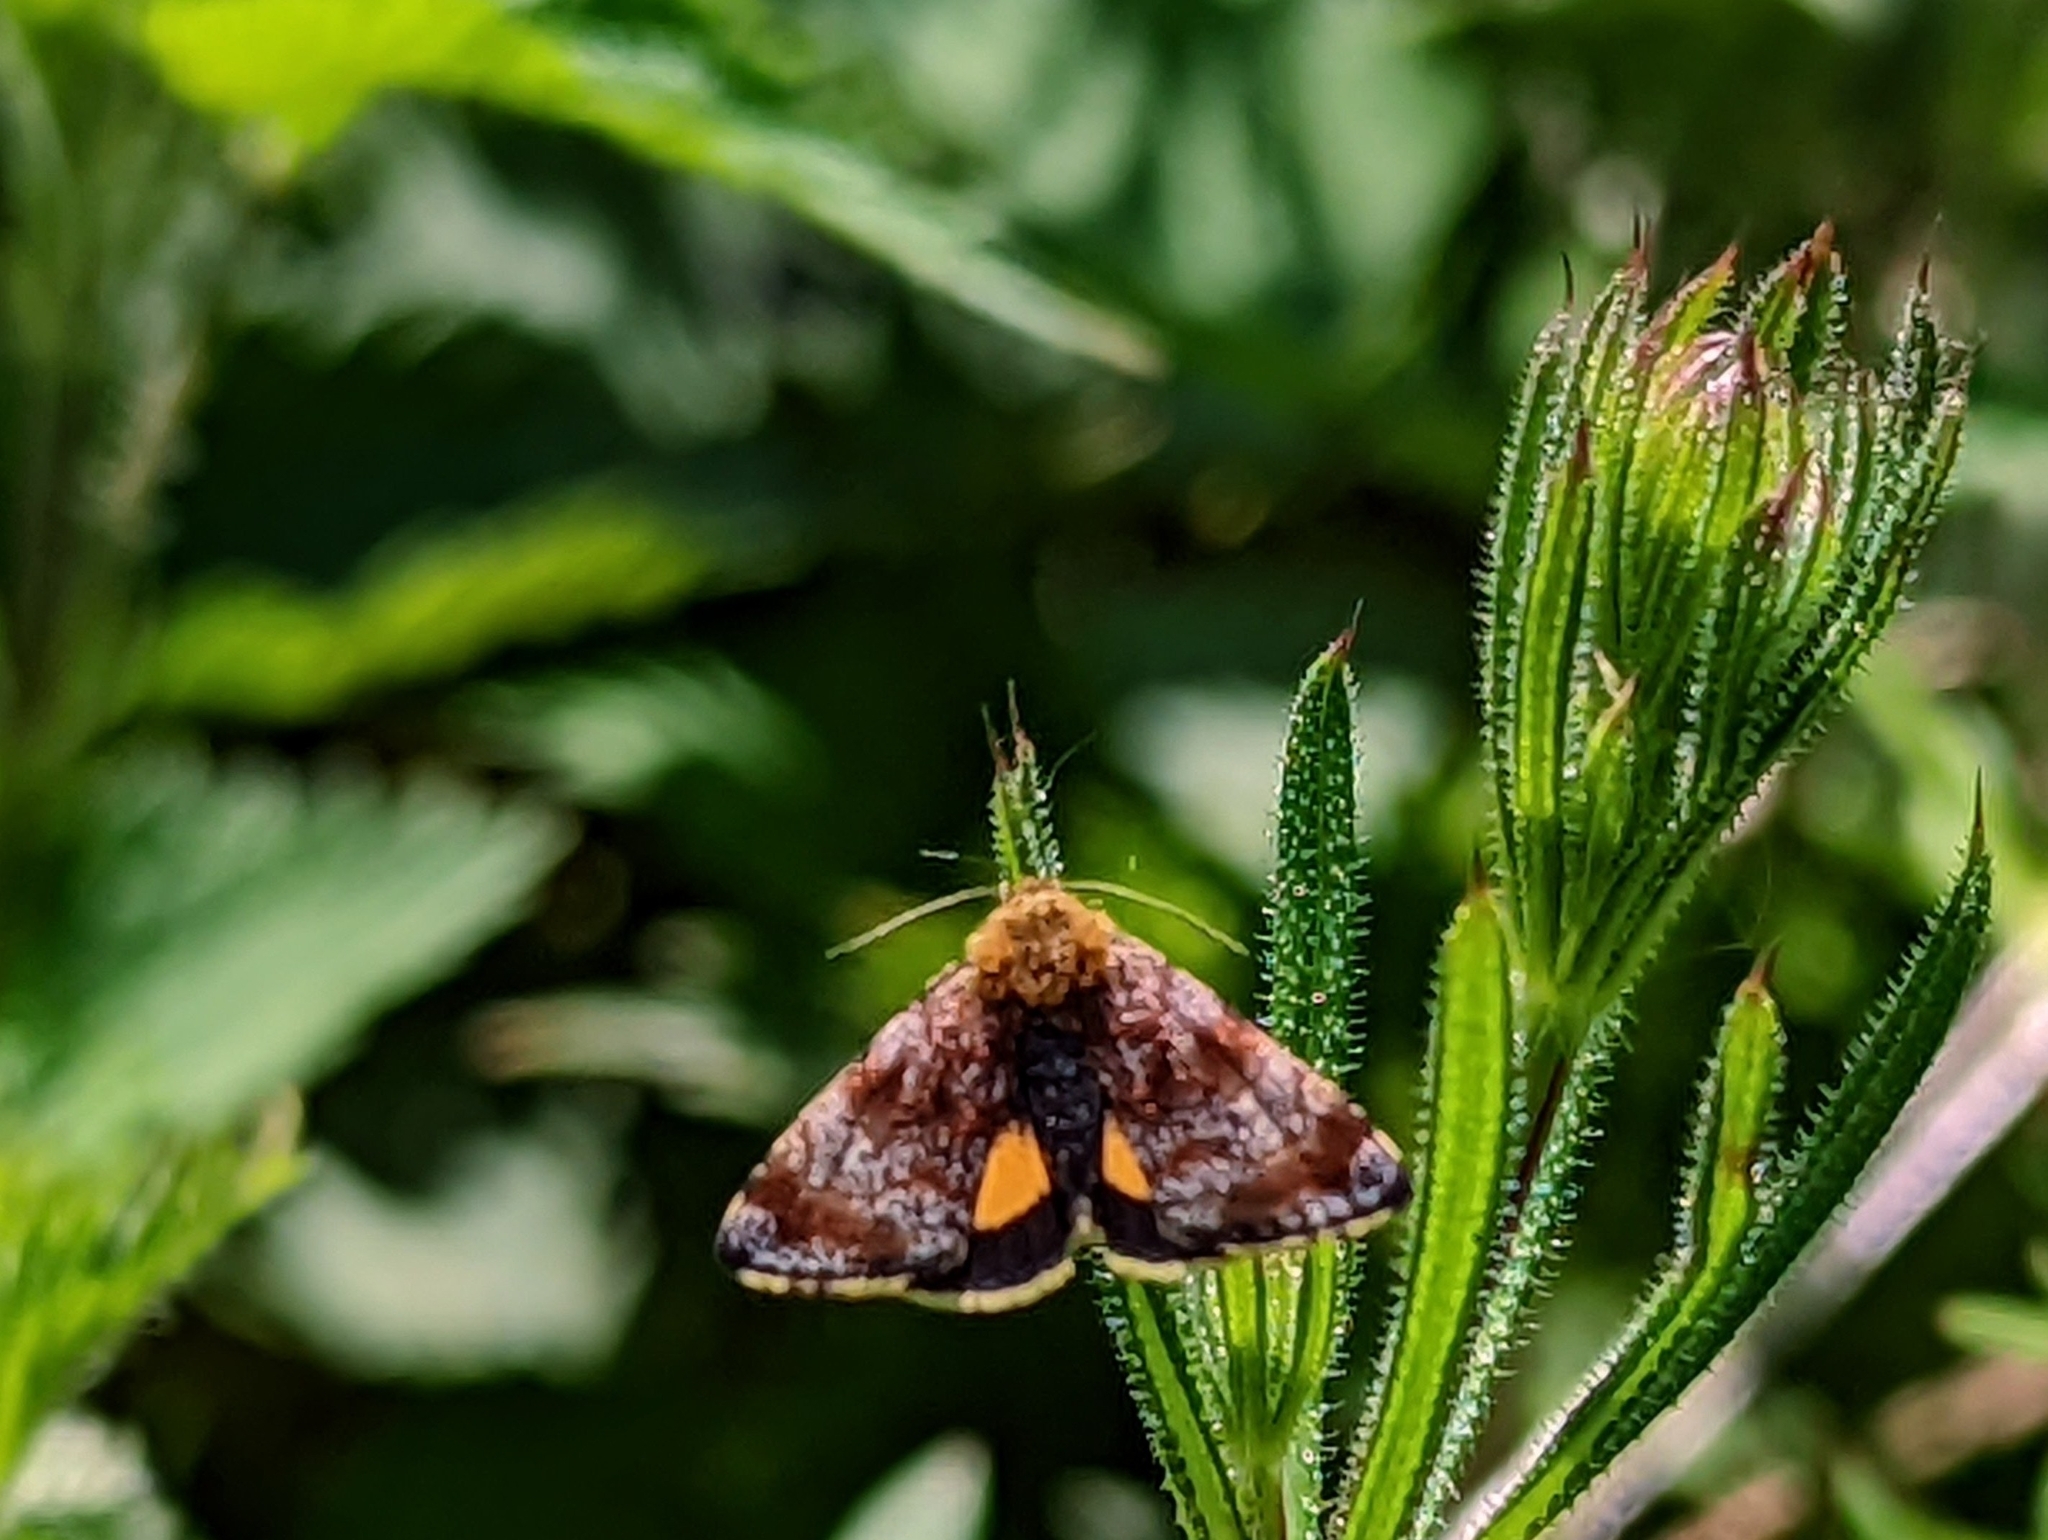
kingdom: Animalia
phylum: Arthropoda
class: Insecta
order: Lepidoptera
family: Noctuidae
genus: Panemeria
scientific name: Panemeria tenebrata
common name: Small yellow underwing
